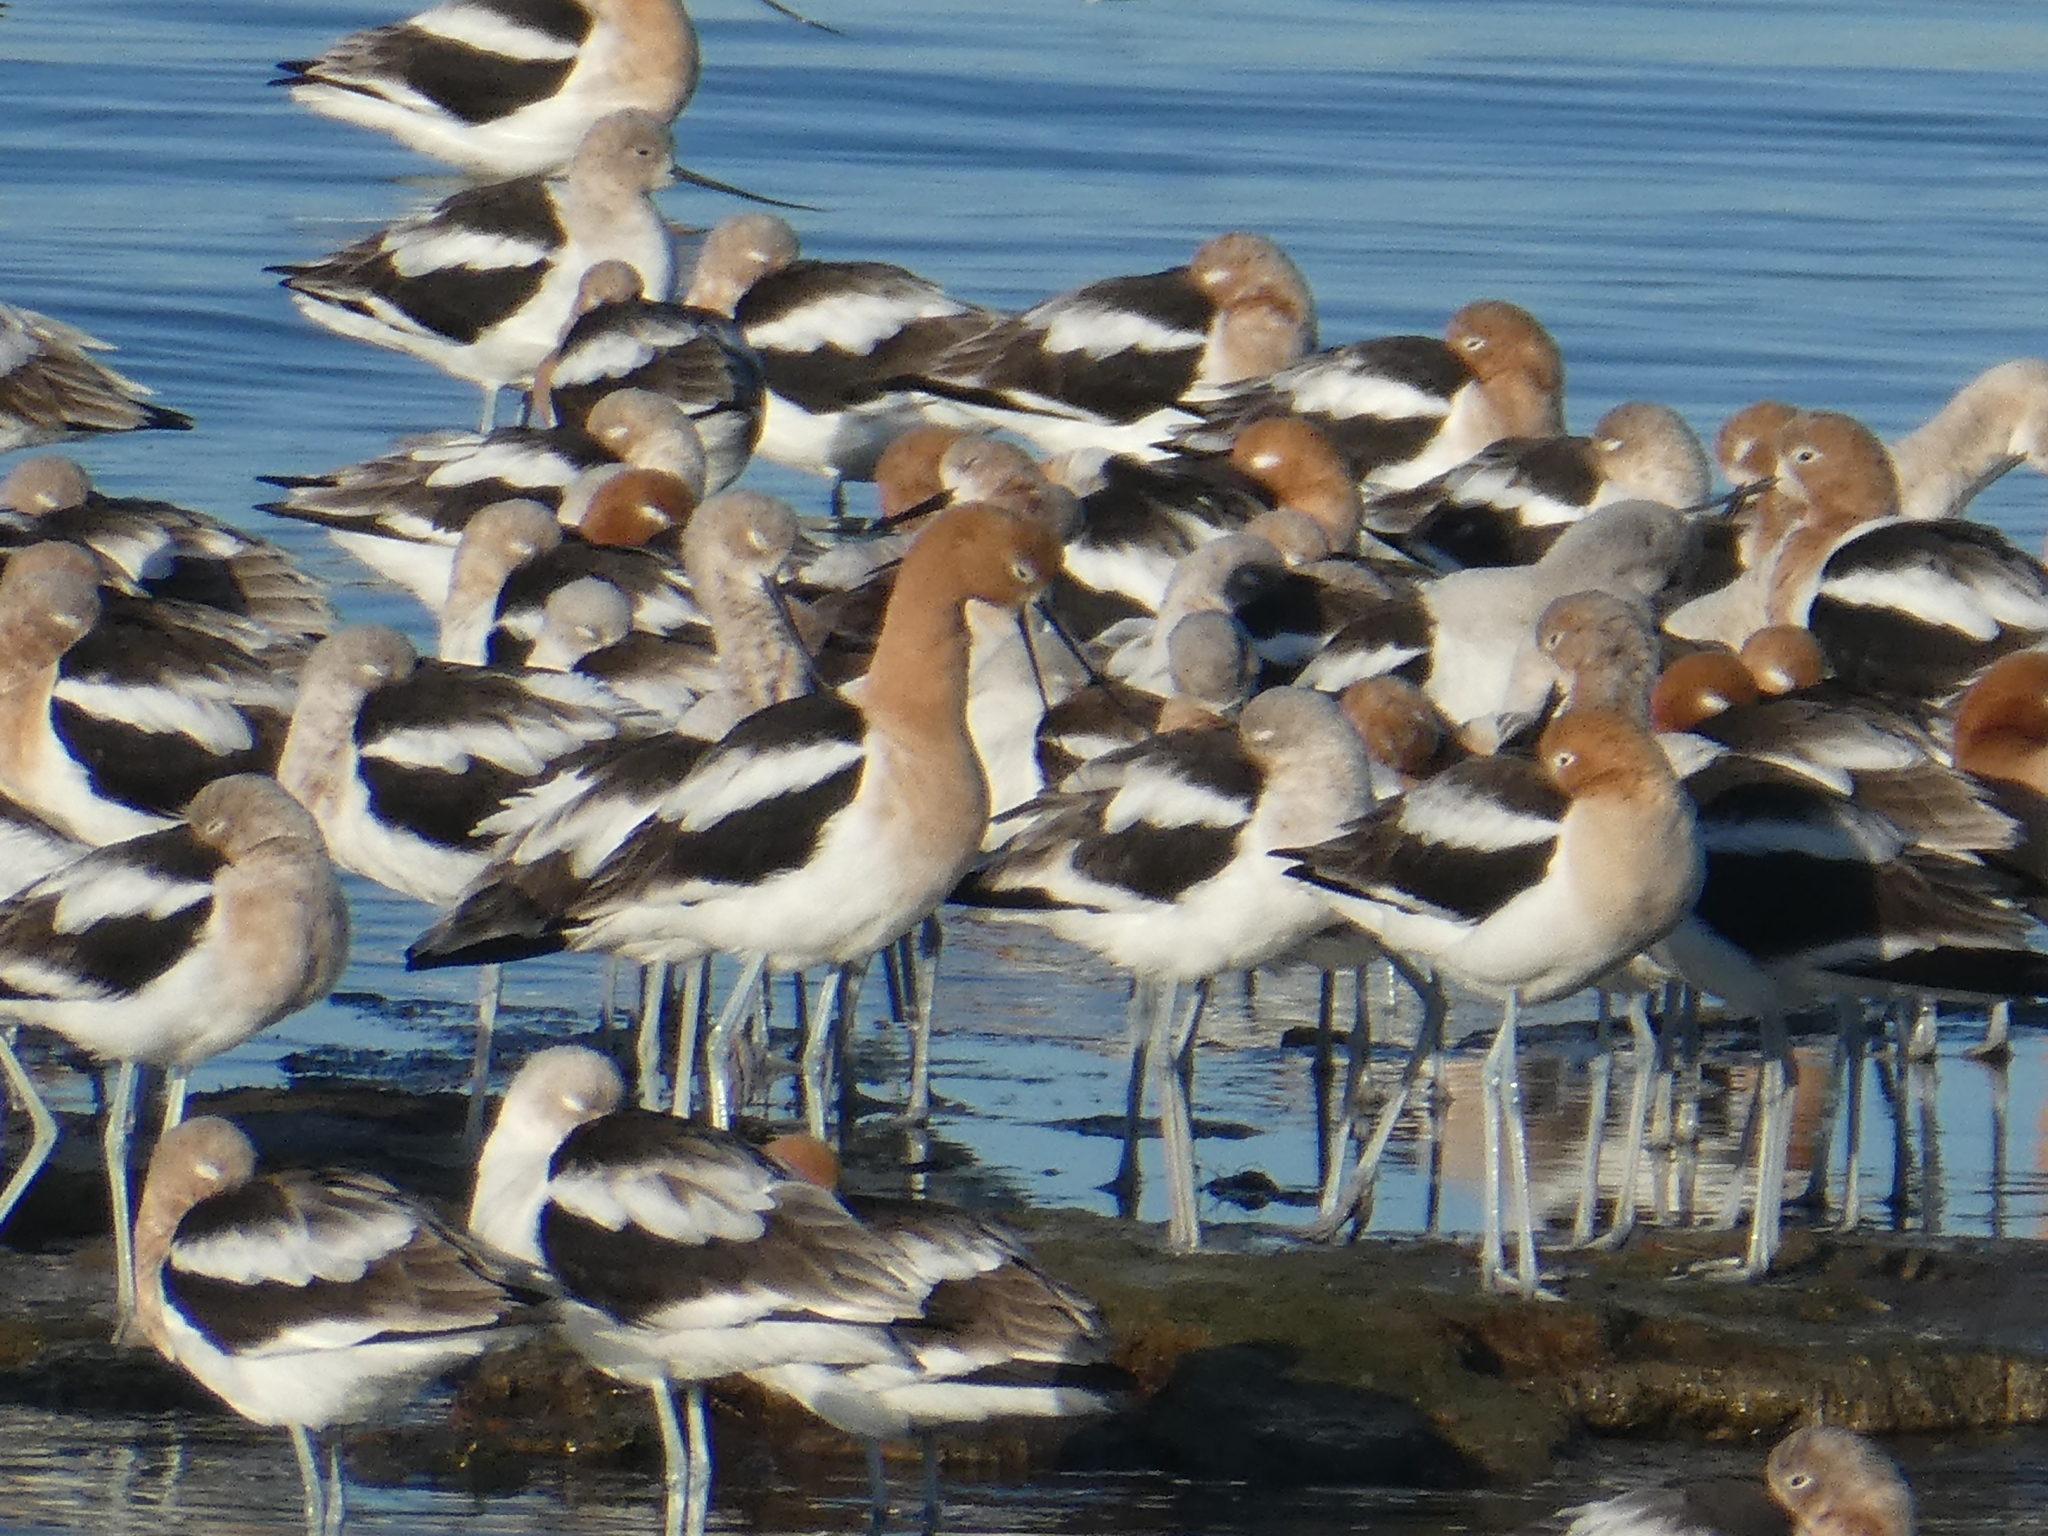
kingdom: Animalia
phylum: Chordata
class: Aves
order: Charadriiformes
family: Recurvirostridae
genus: Recurvirostra
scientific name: Recurvirostra americana
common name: American avocet
